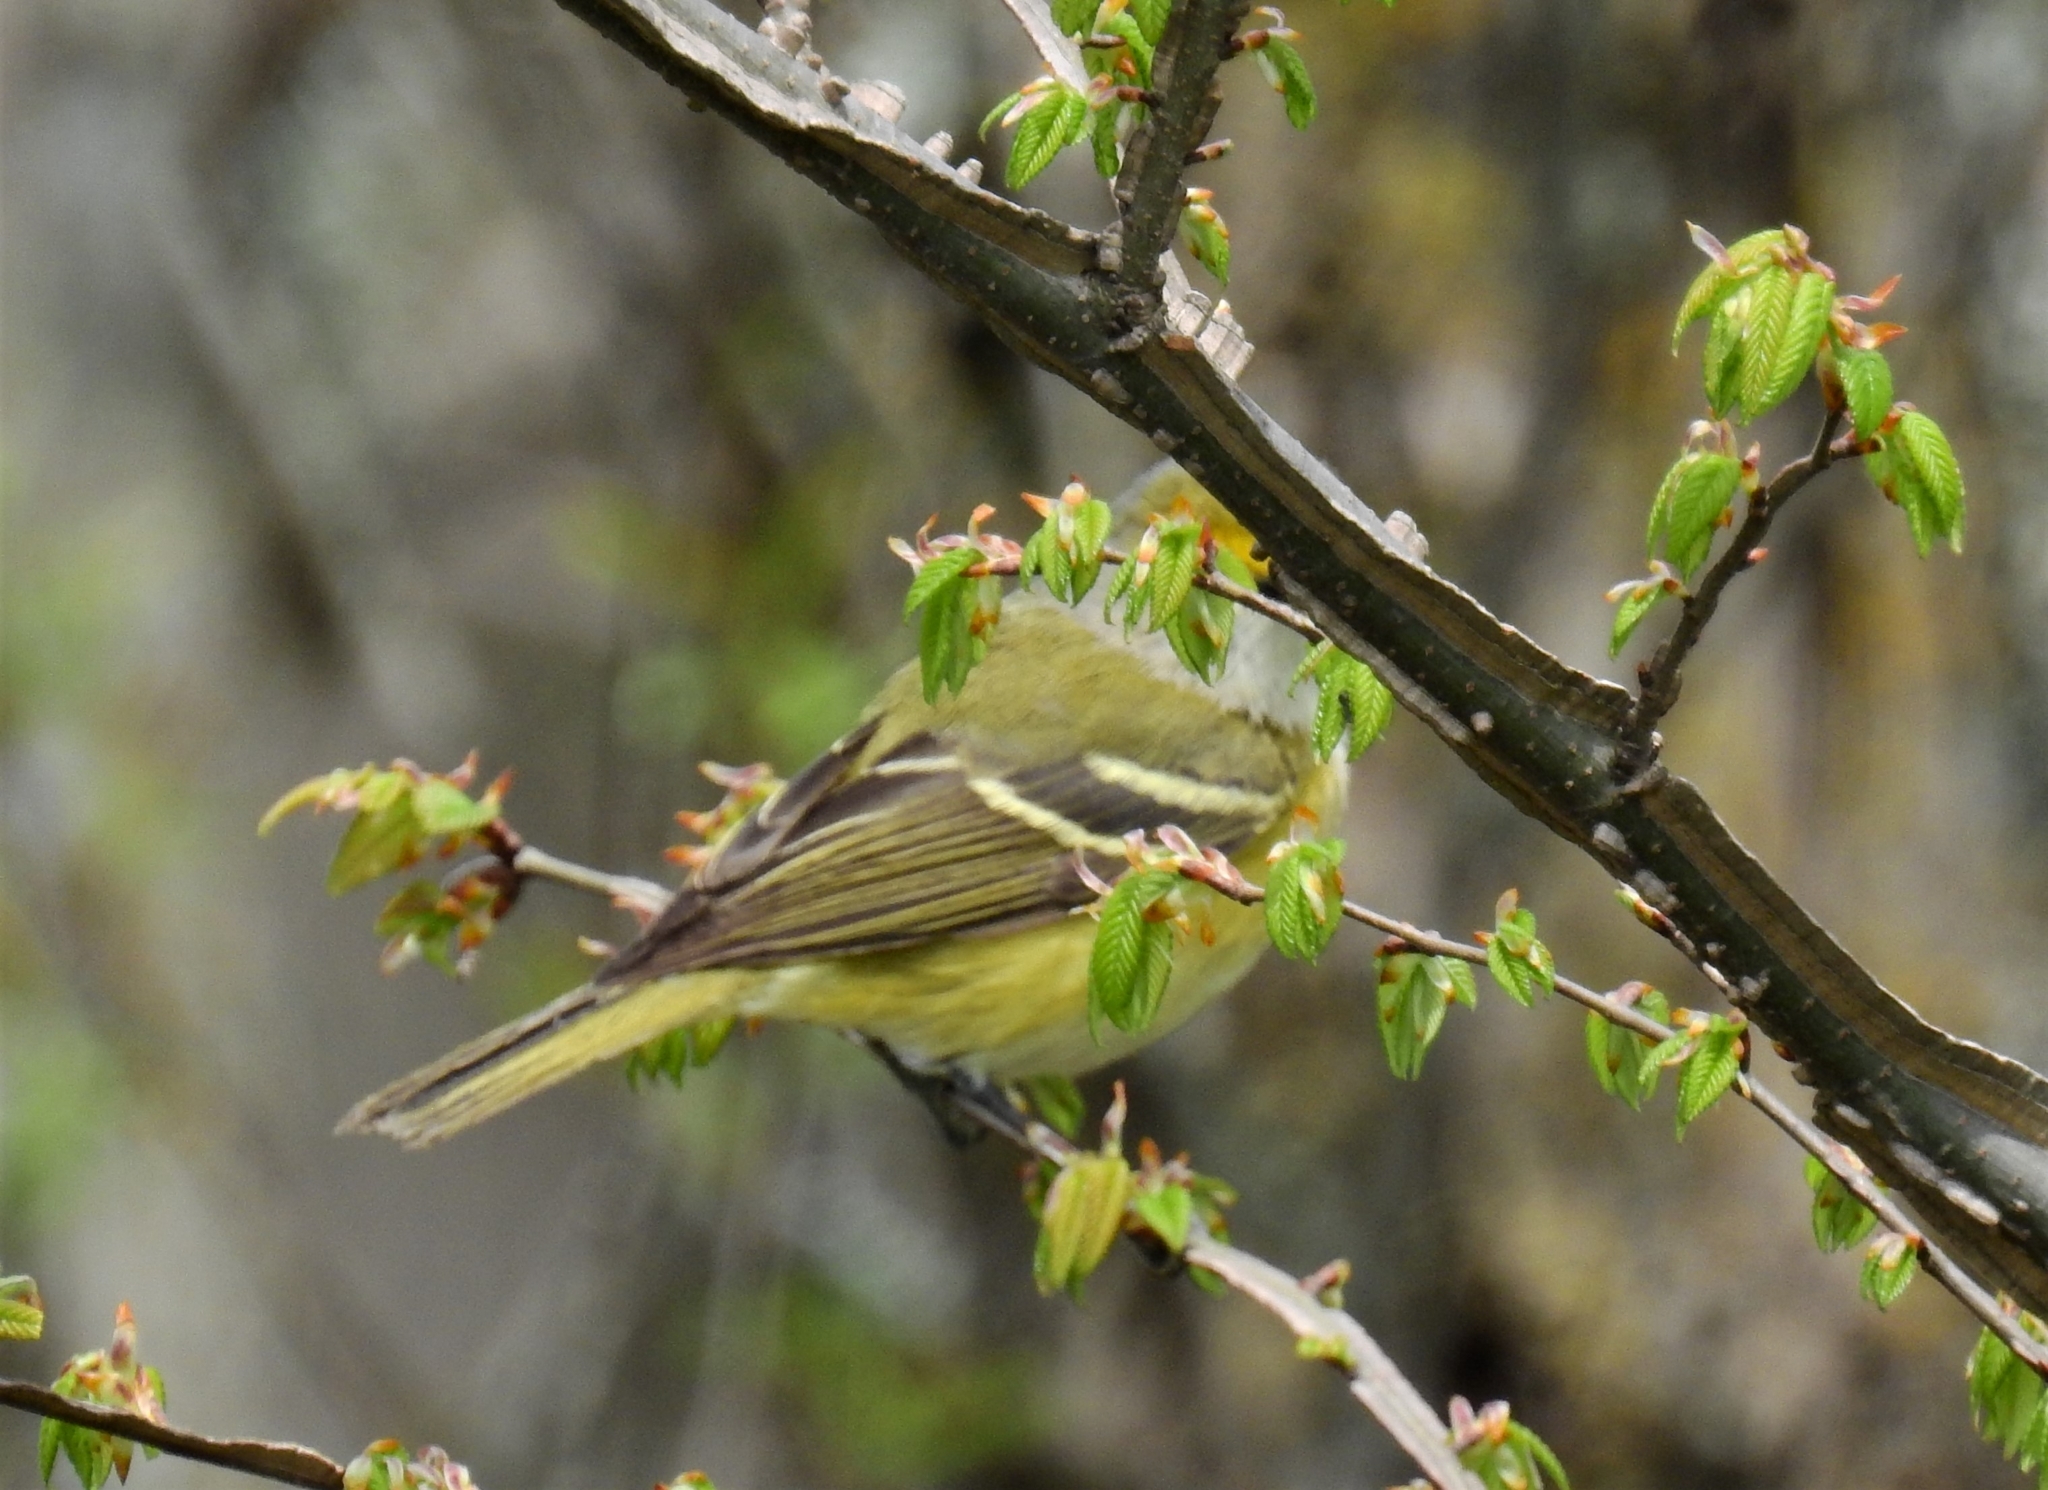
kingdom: Animalia
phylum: Chordata
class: Aves
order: Passeriformes
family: Vireonidae
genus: Vireo
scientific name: Vireo griseus
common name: White-eyed vireo
